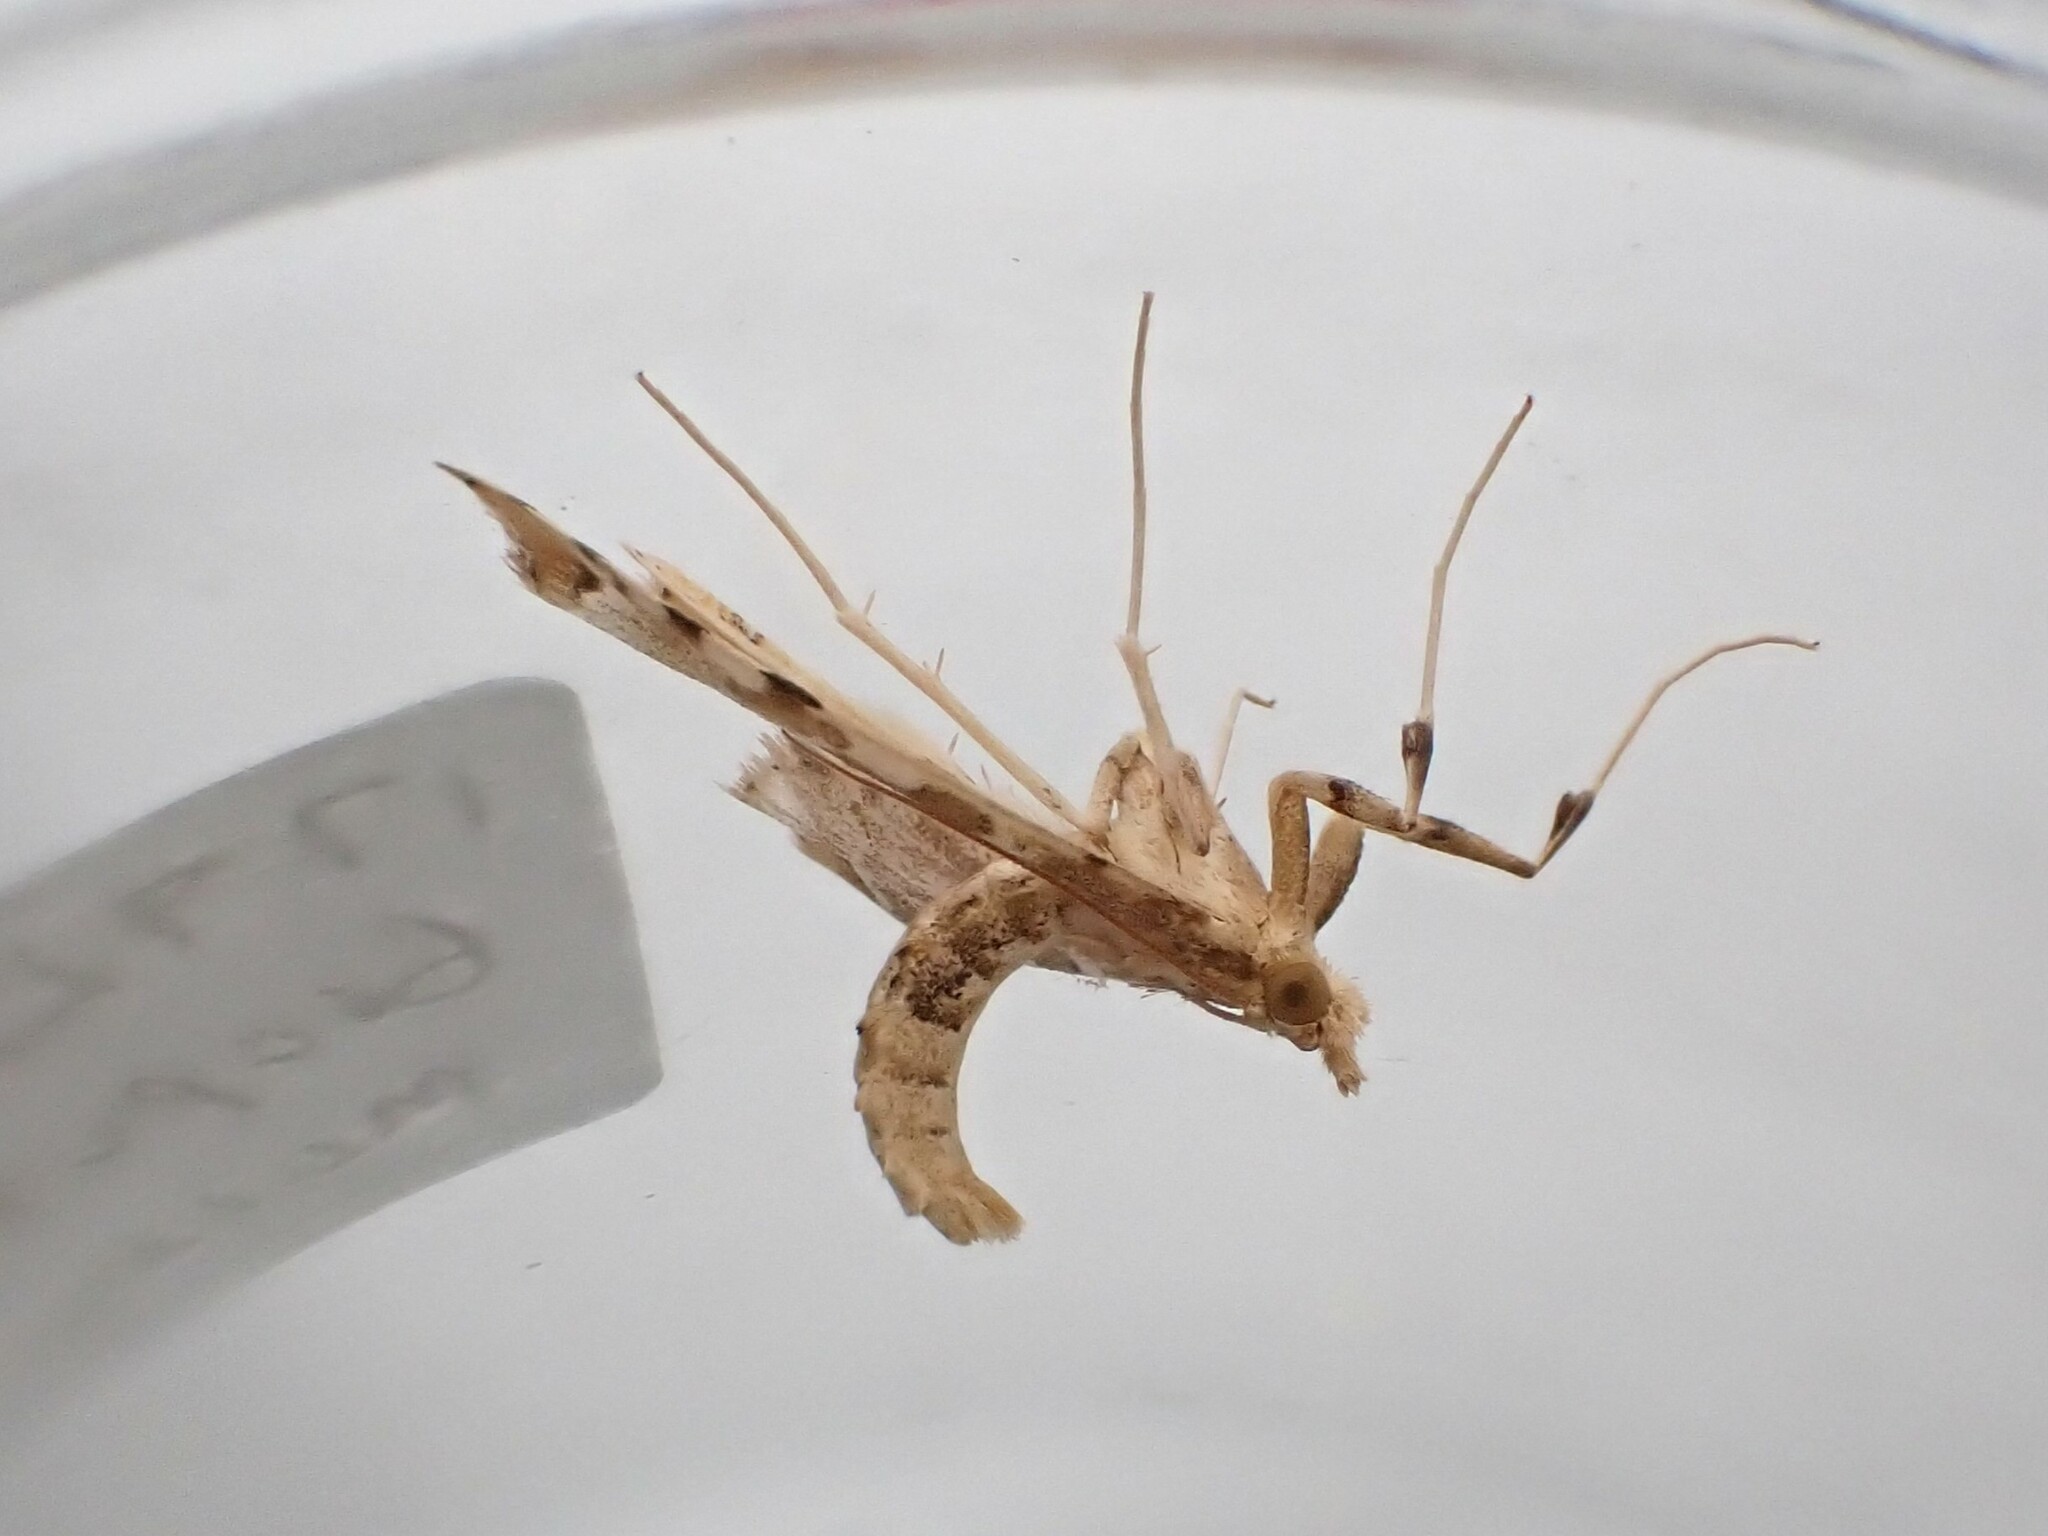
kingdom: Animalia
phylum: Arthropoda
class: Insecta
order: Lepidoptera
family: Crambidae
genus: Sceliodes
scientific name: Sceliodes cordalis
